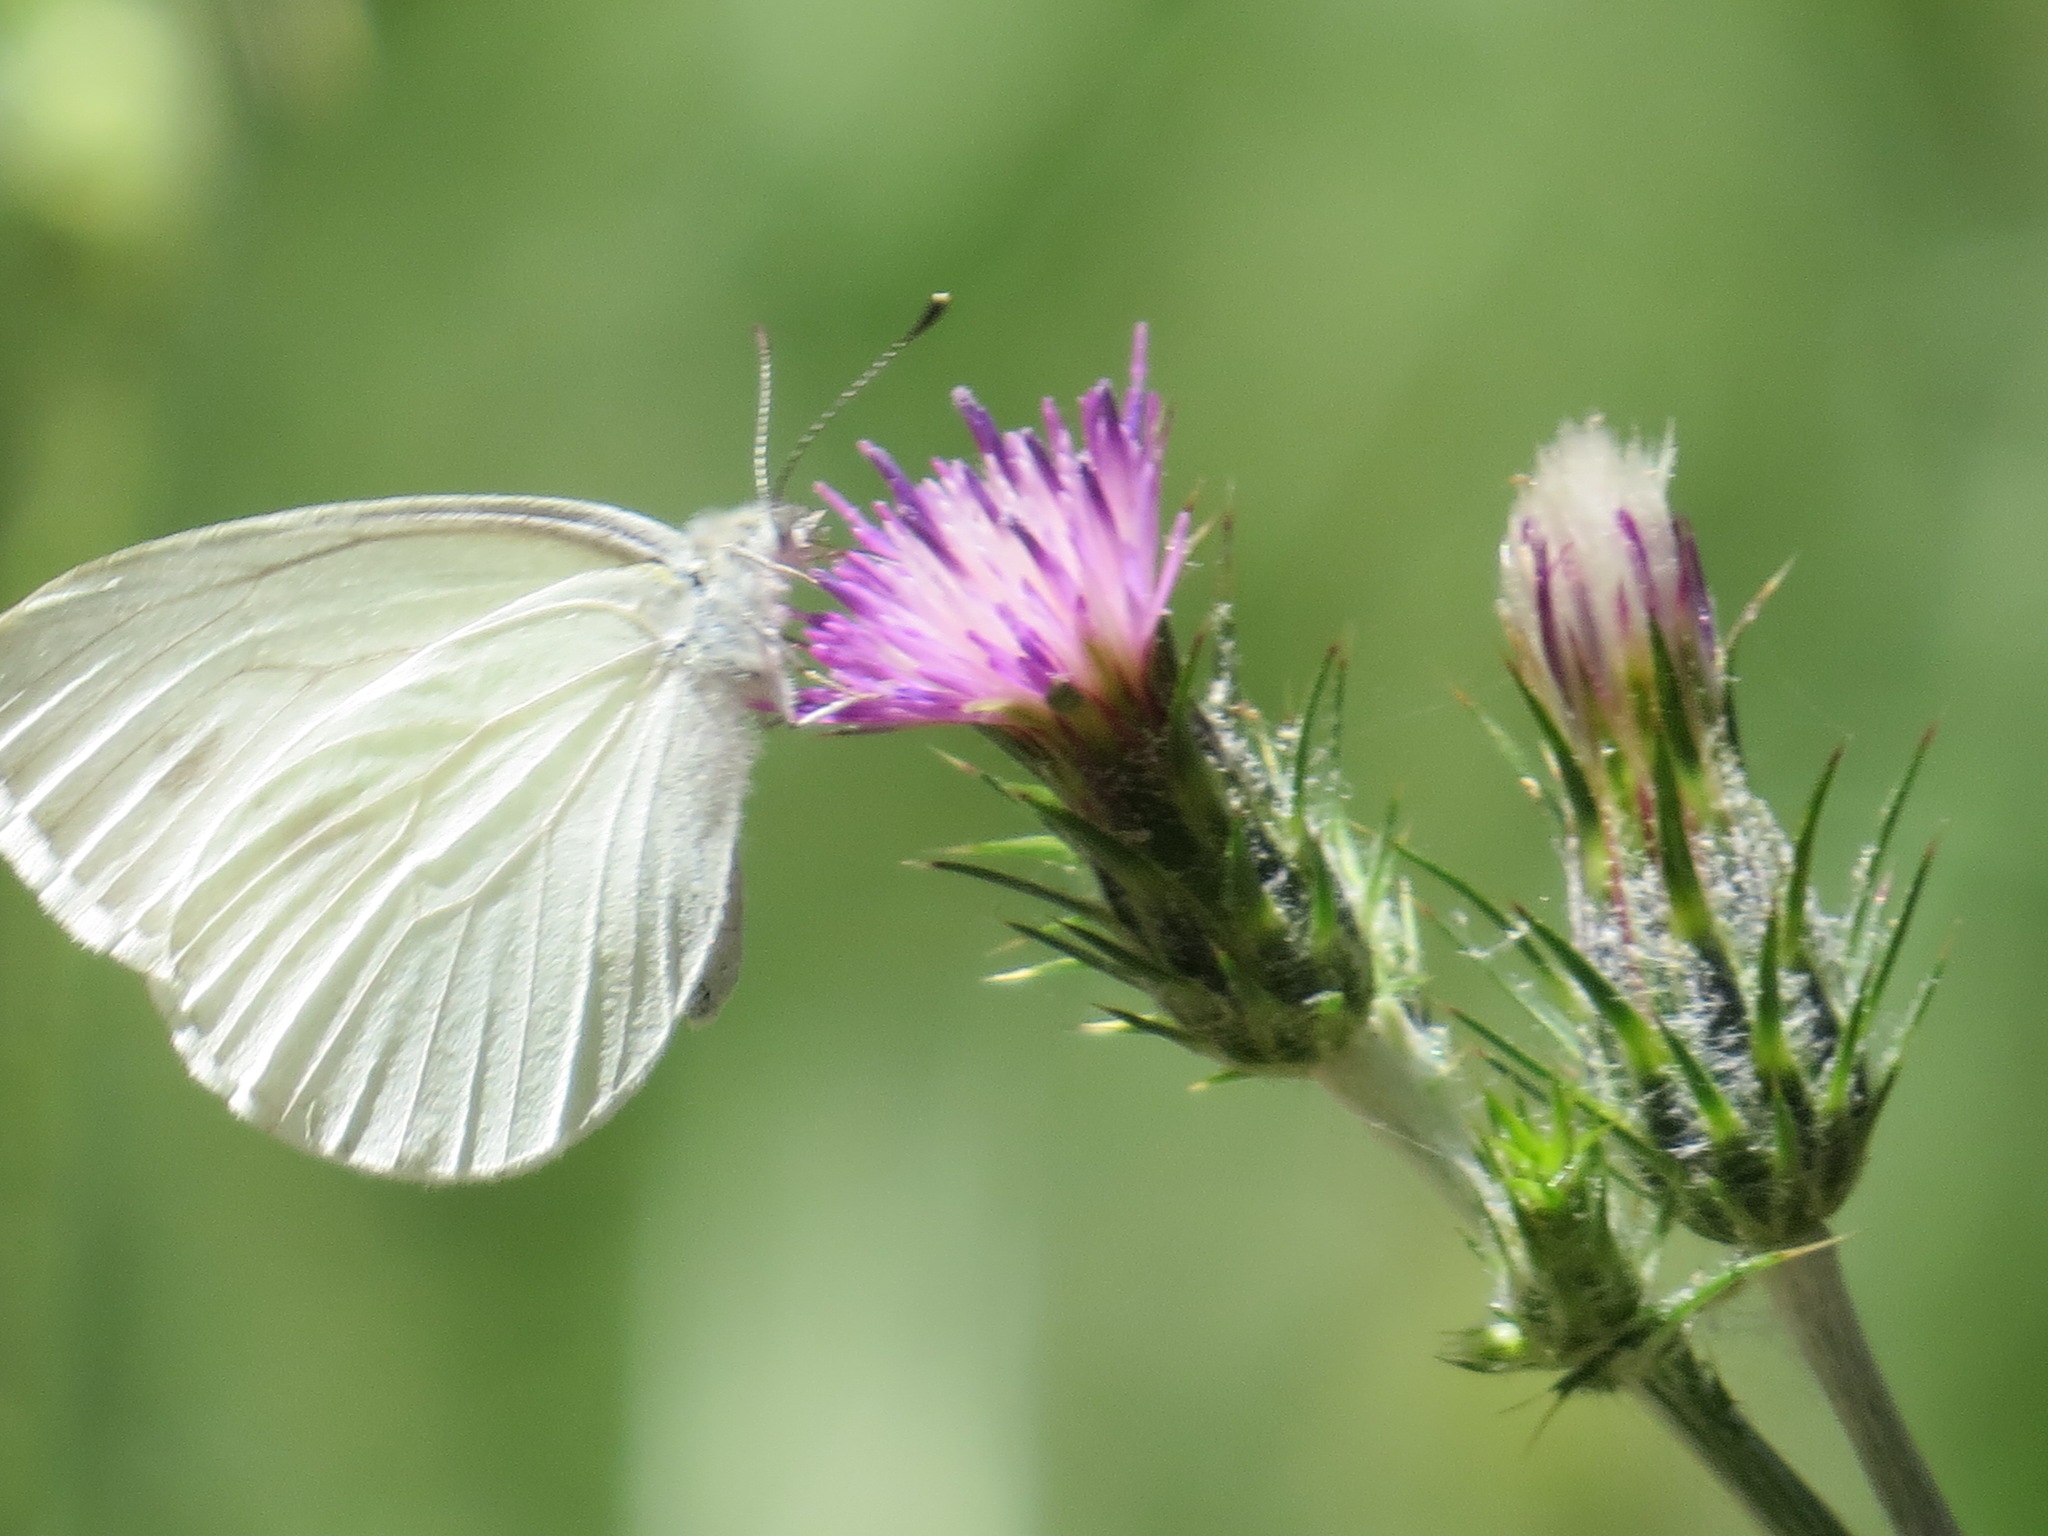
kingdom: Animalia
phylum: Arthropoda
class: Insecta
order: Lepidoptera
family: Pieridae
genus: Pieris
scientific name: Pieris marginalis
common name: Margined white
